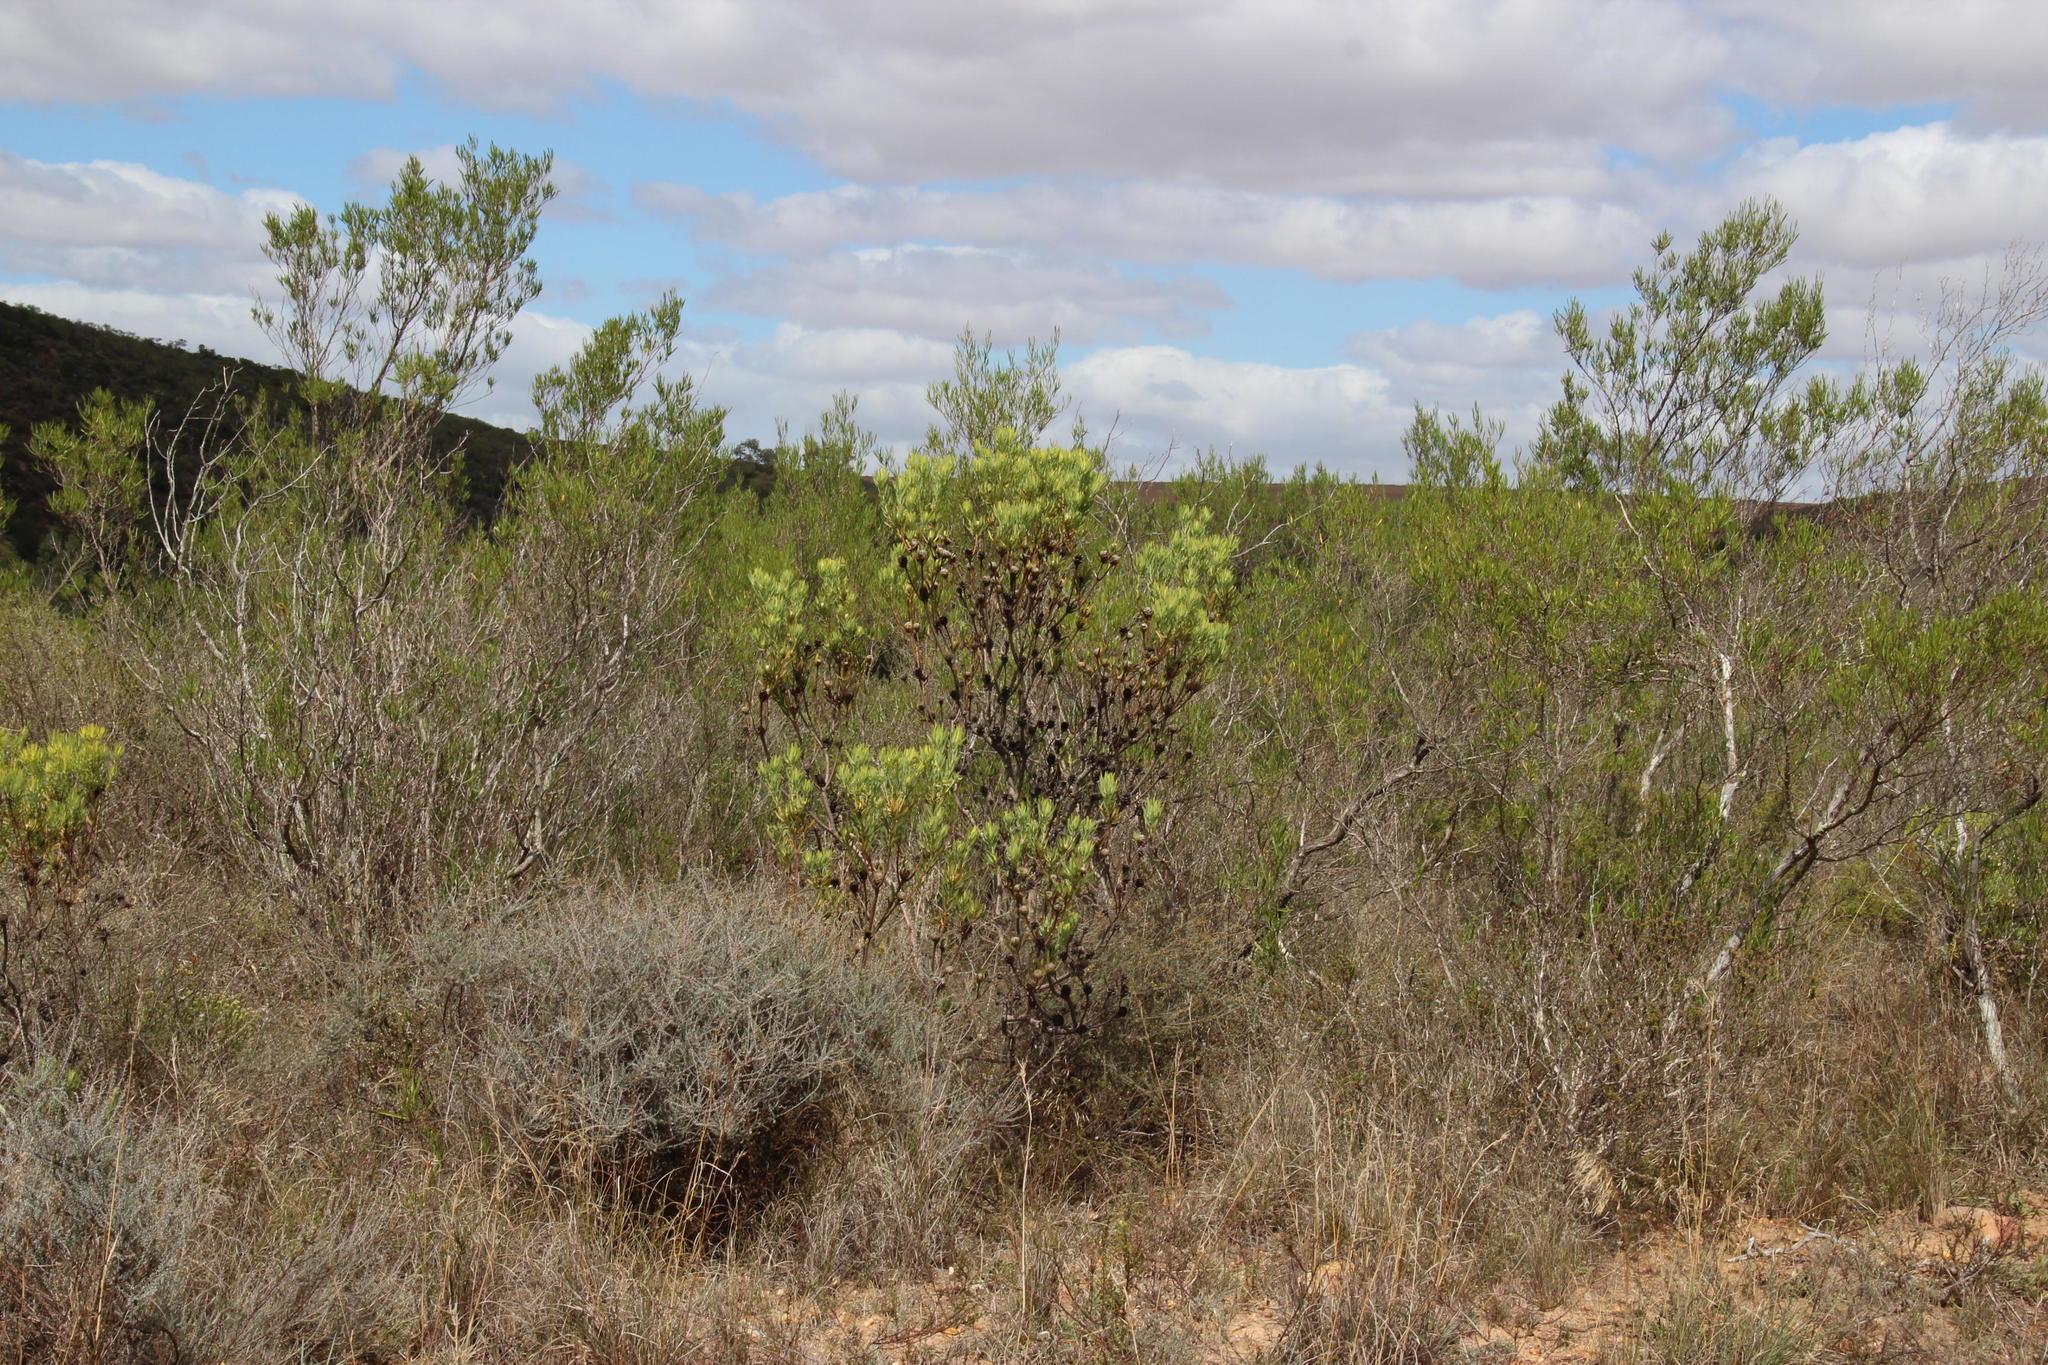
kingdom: Plantae
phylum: Tracheophyta
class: Magnoliopsida
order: Proteales
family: Proteaceae
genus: Leucadendron
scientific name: Leucadendron salignum
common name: Common sunshine conebush
